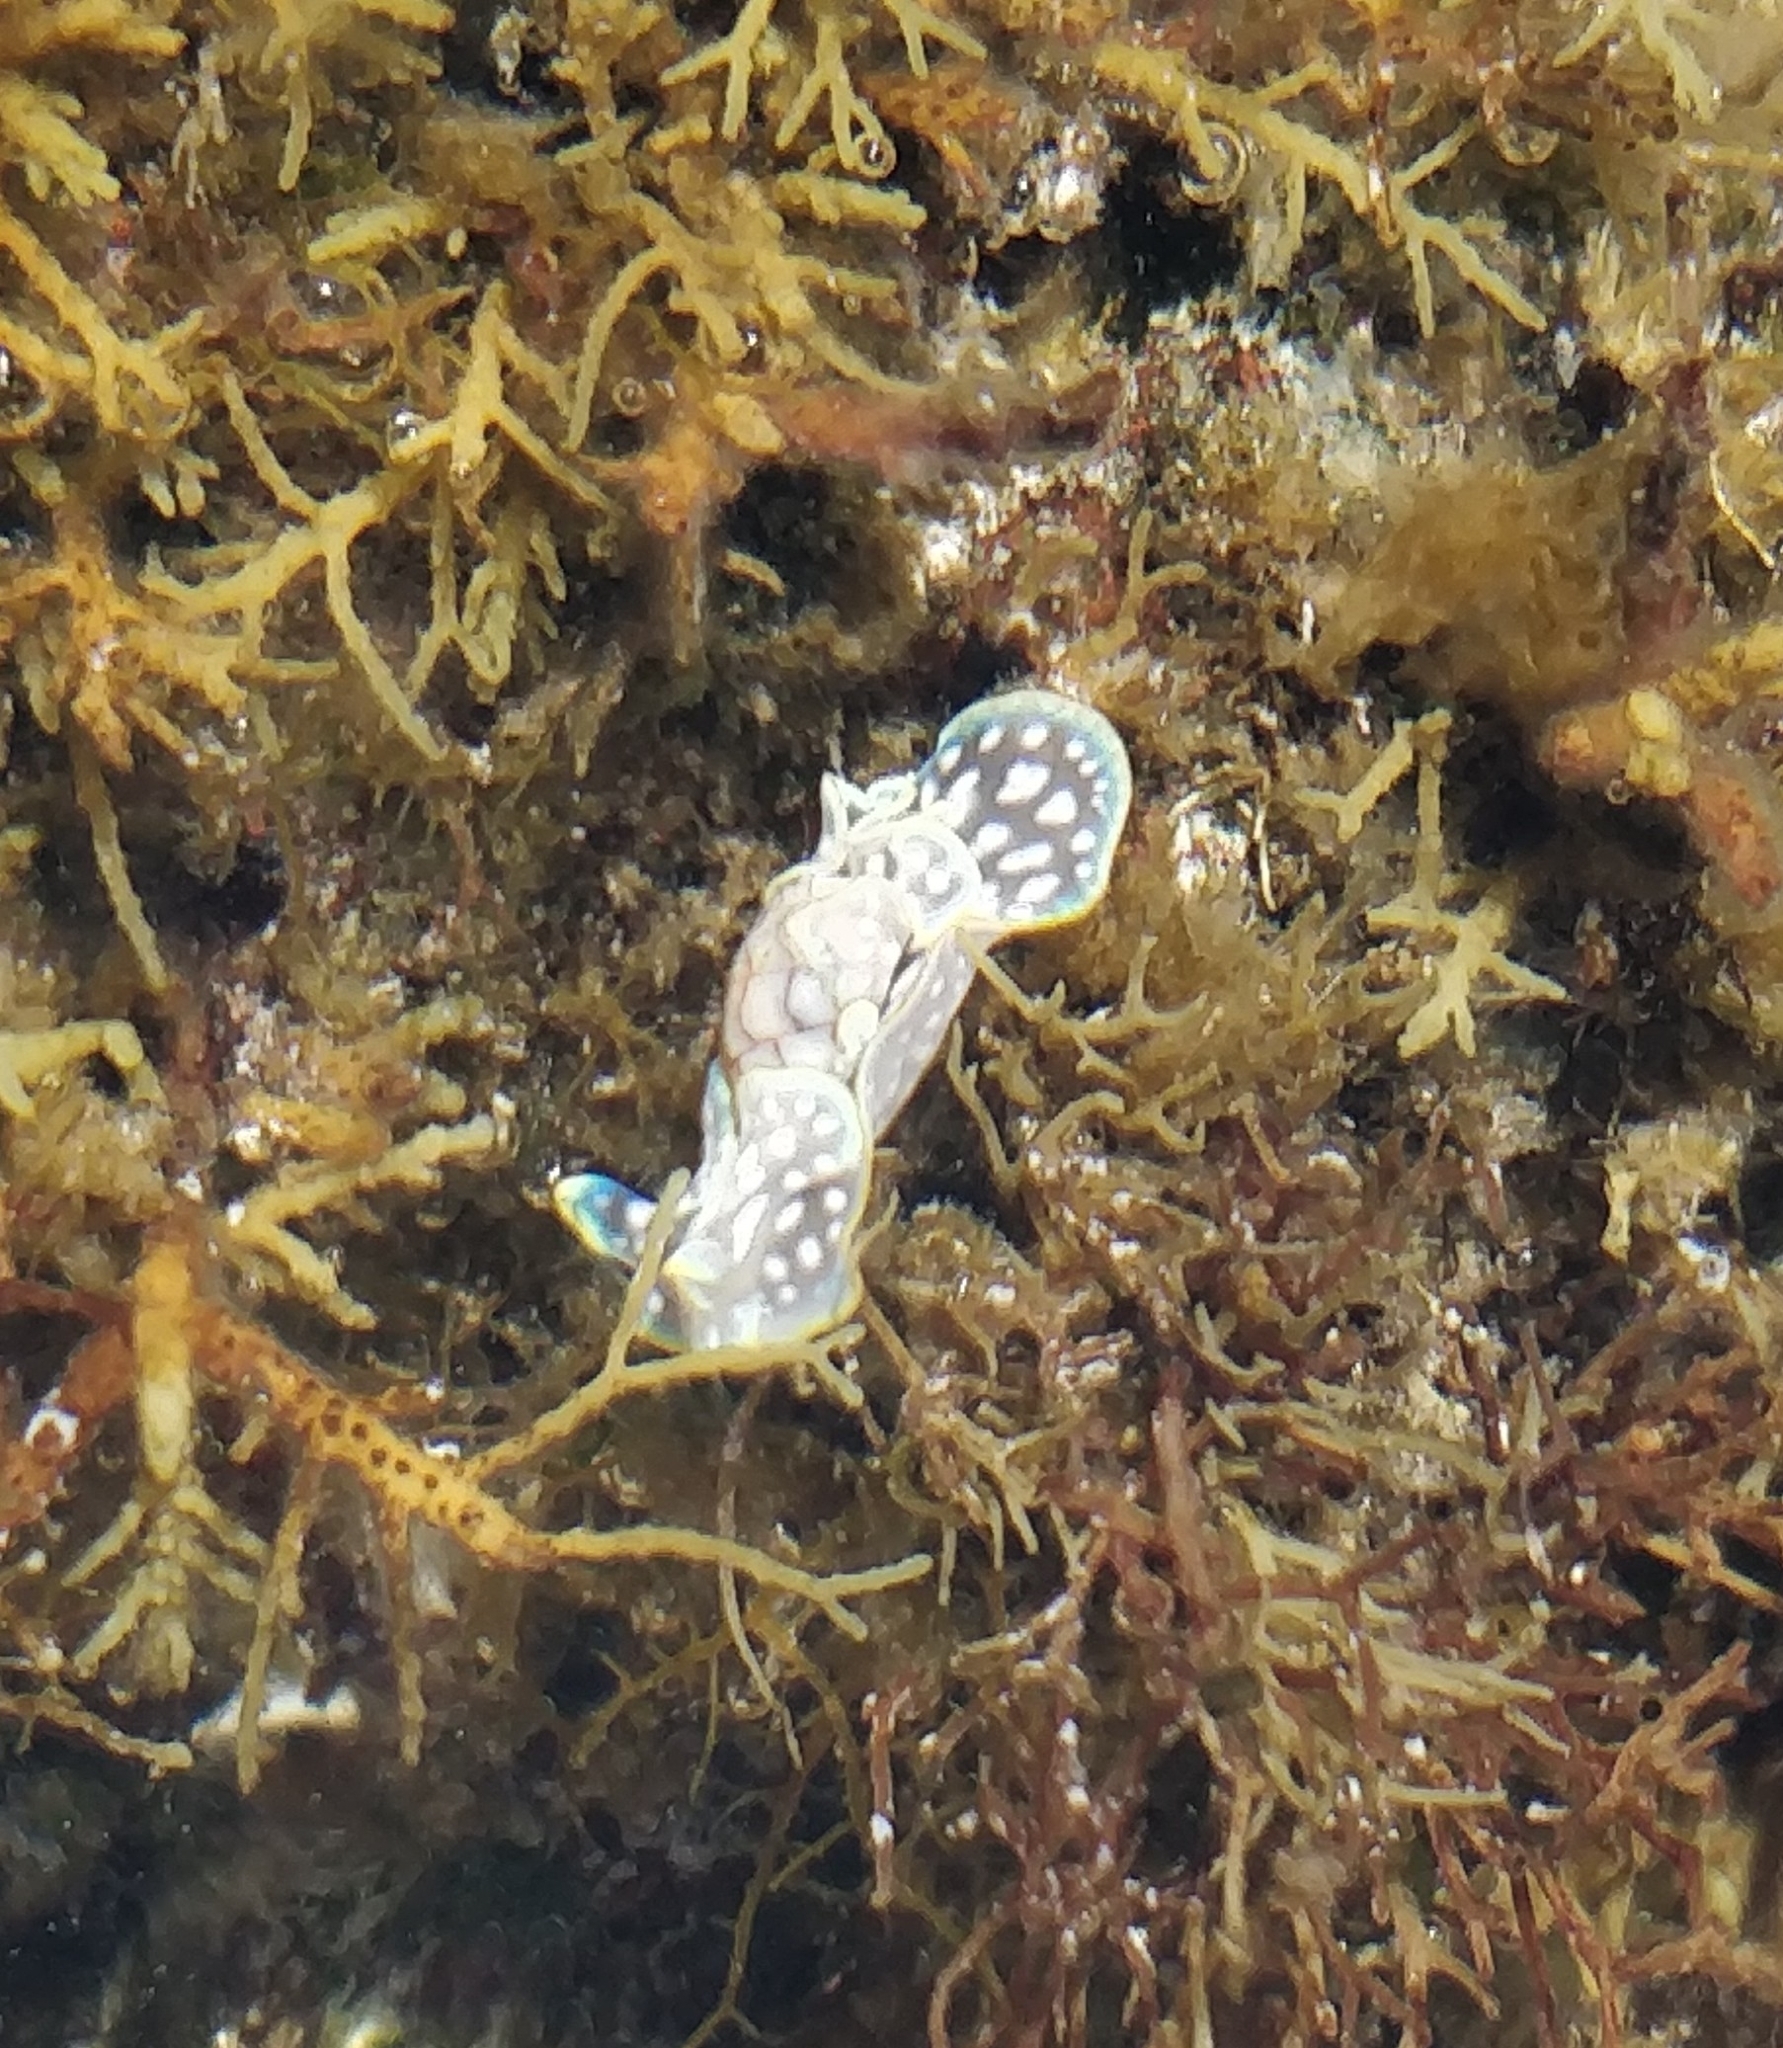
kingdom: Animalia
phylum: Mollusca
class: Gastropoda
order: Cephalaspidea
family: Aplustridae
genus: Micromelo
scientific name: Micromelo undatus
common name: Miniature melo
